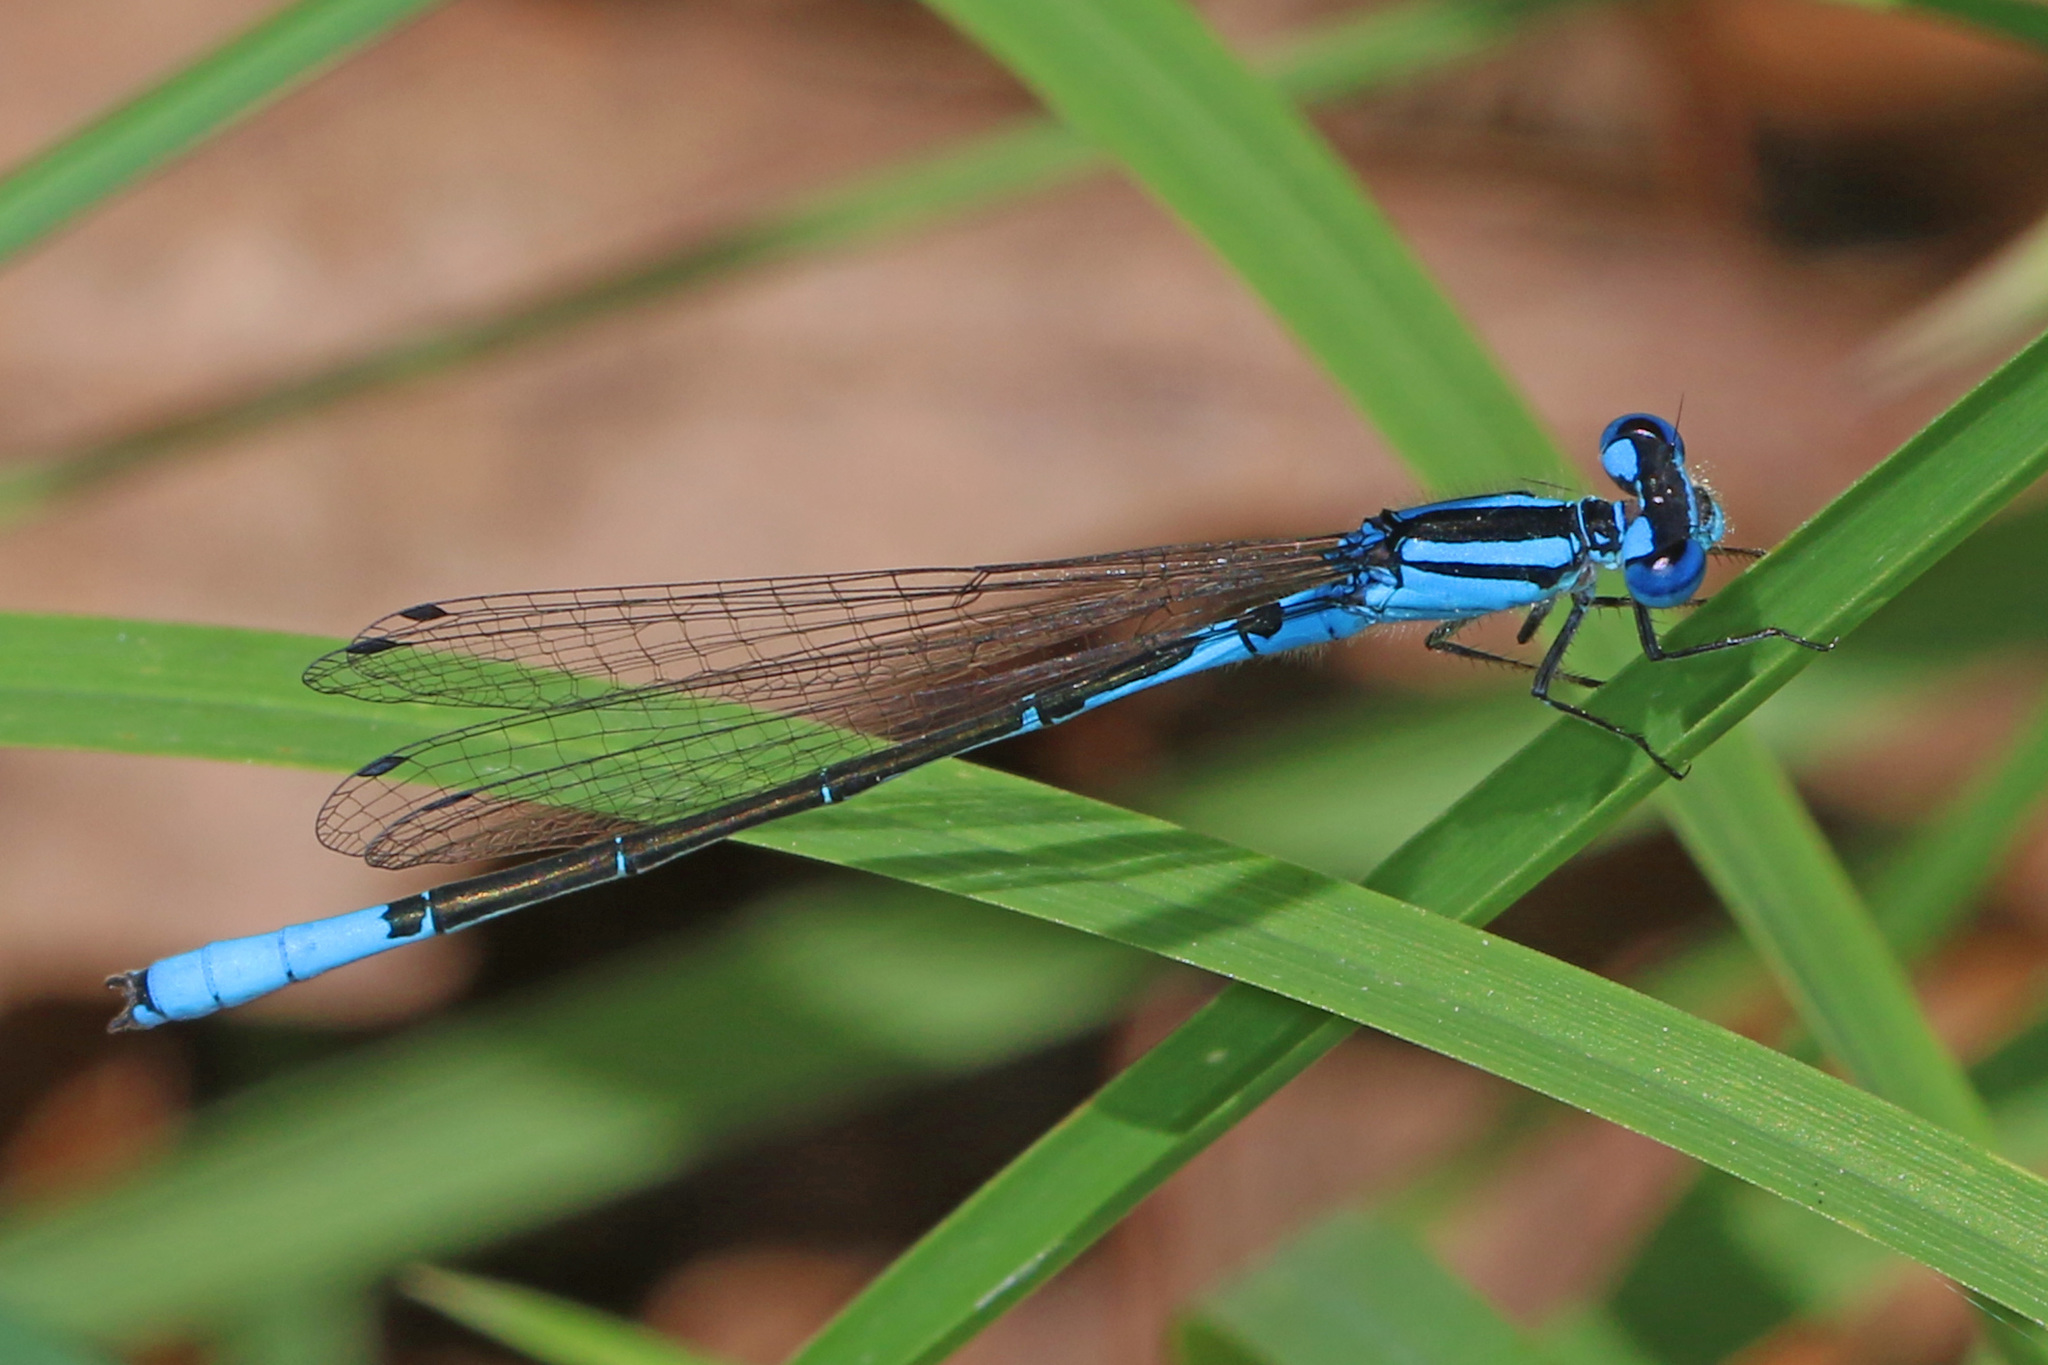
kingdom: Animalia
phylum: Arthropoda
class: Insecta
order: Odonata
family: Coenagrionidae
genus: Enallagma
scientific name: Enallagma aspersum
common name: Azure bluet
